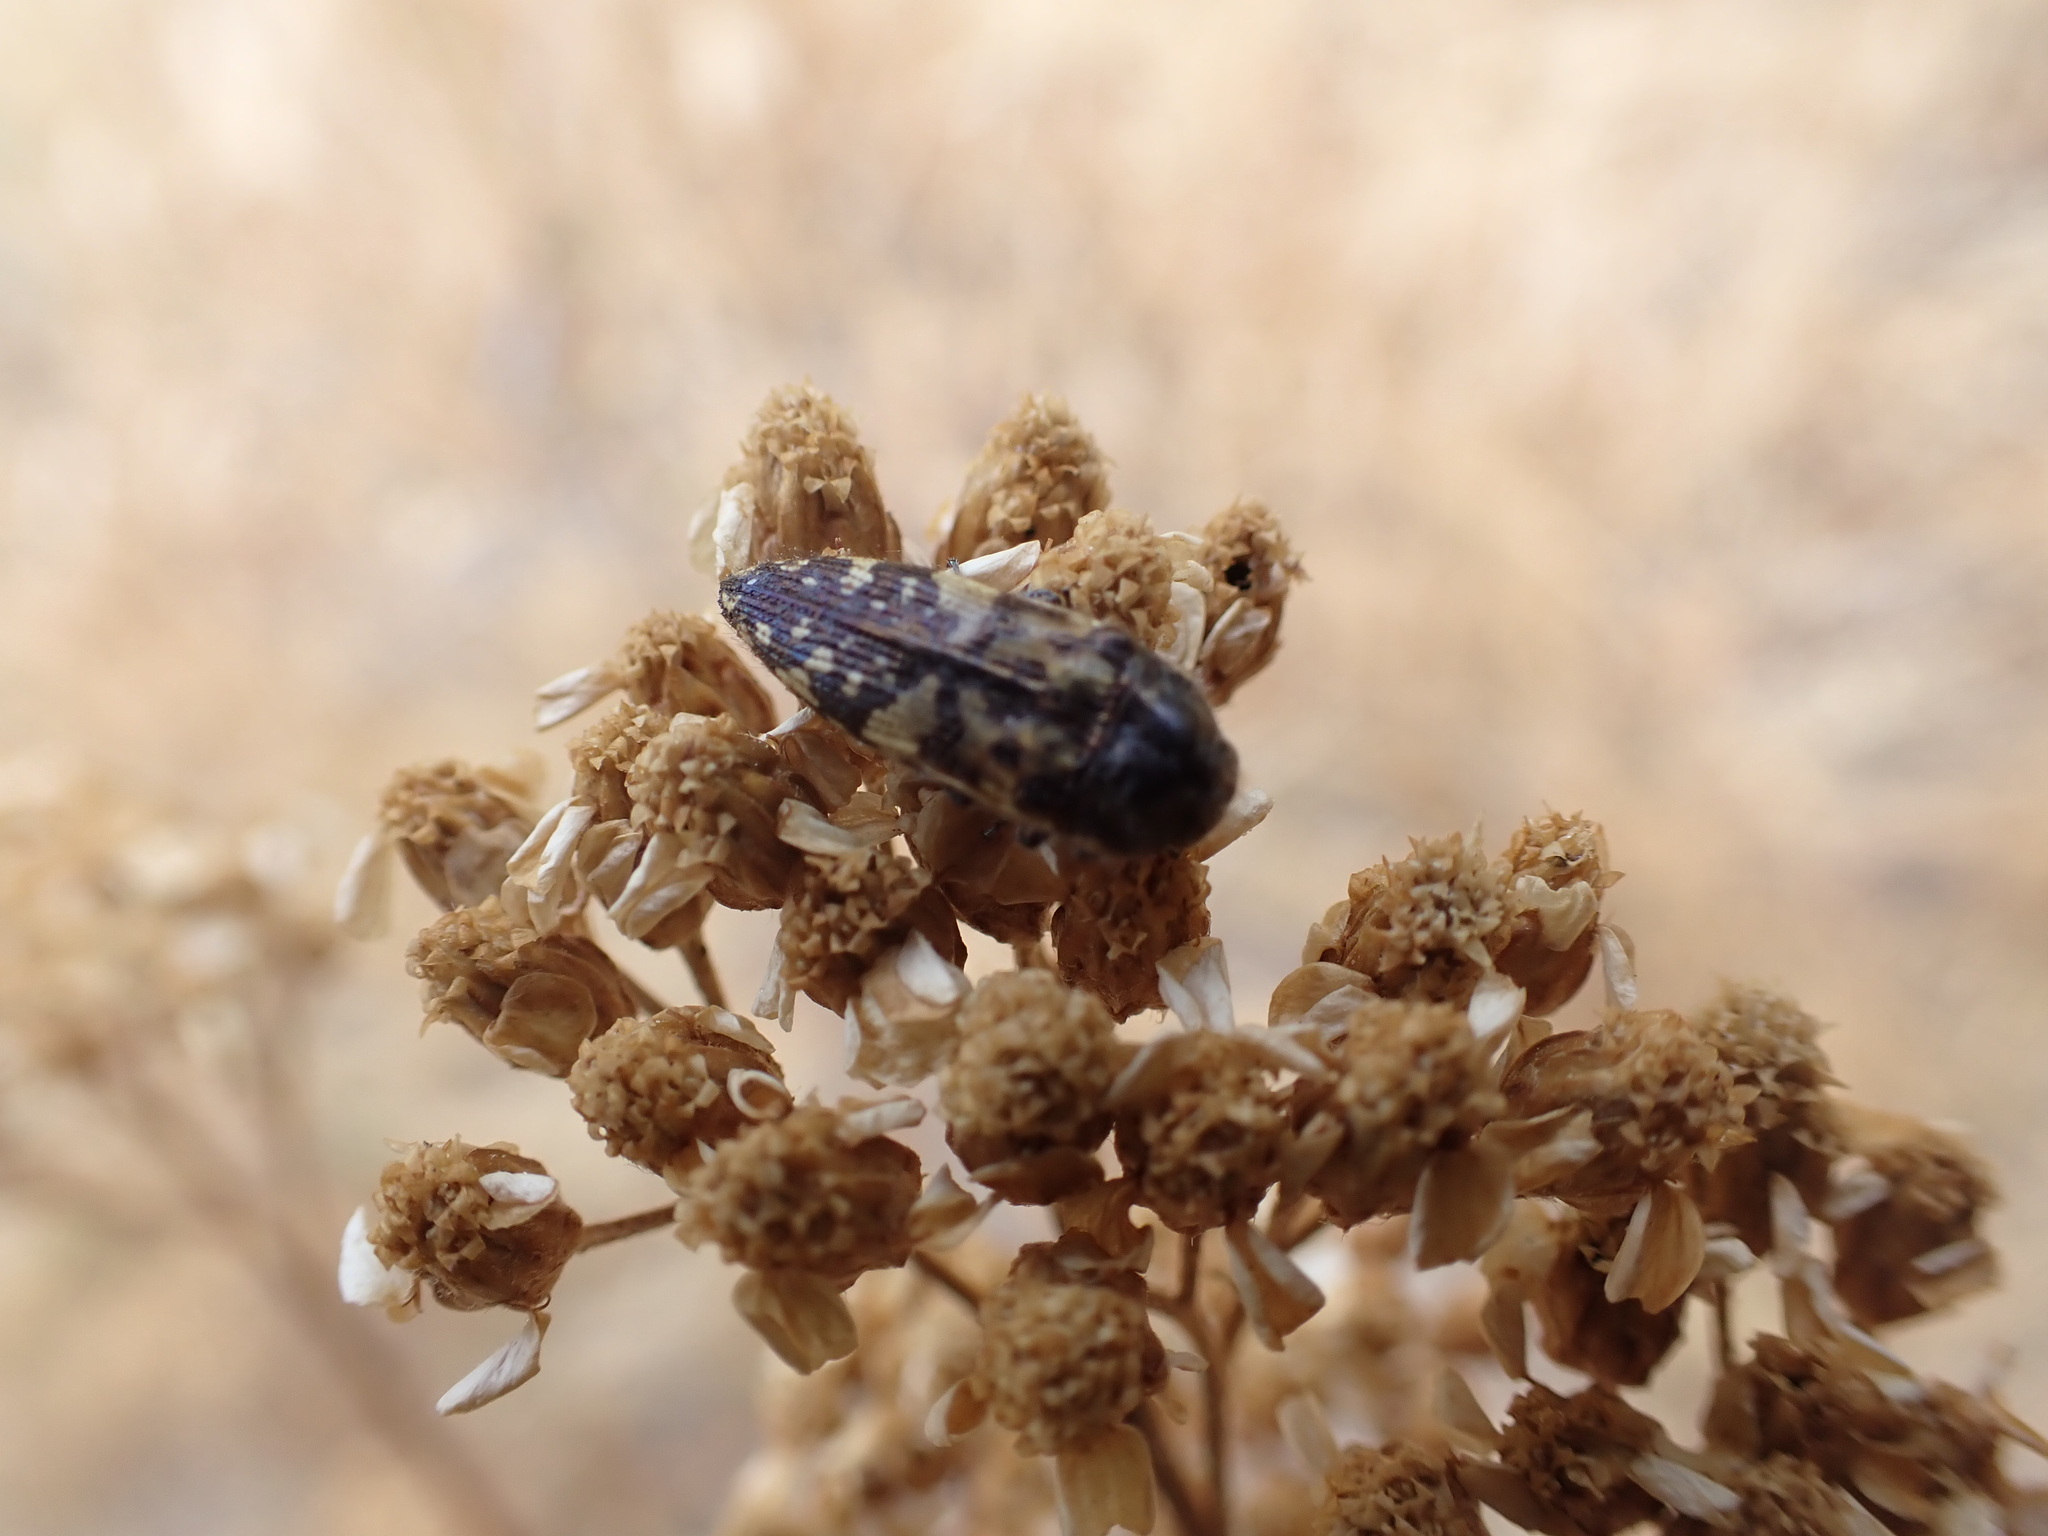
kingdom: Animalia
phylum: Arthropoda
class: Insecta
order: Coleoptera
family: Buprestidae
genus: Acmaeodera
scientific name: Acmaeodera hepburnii
